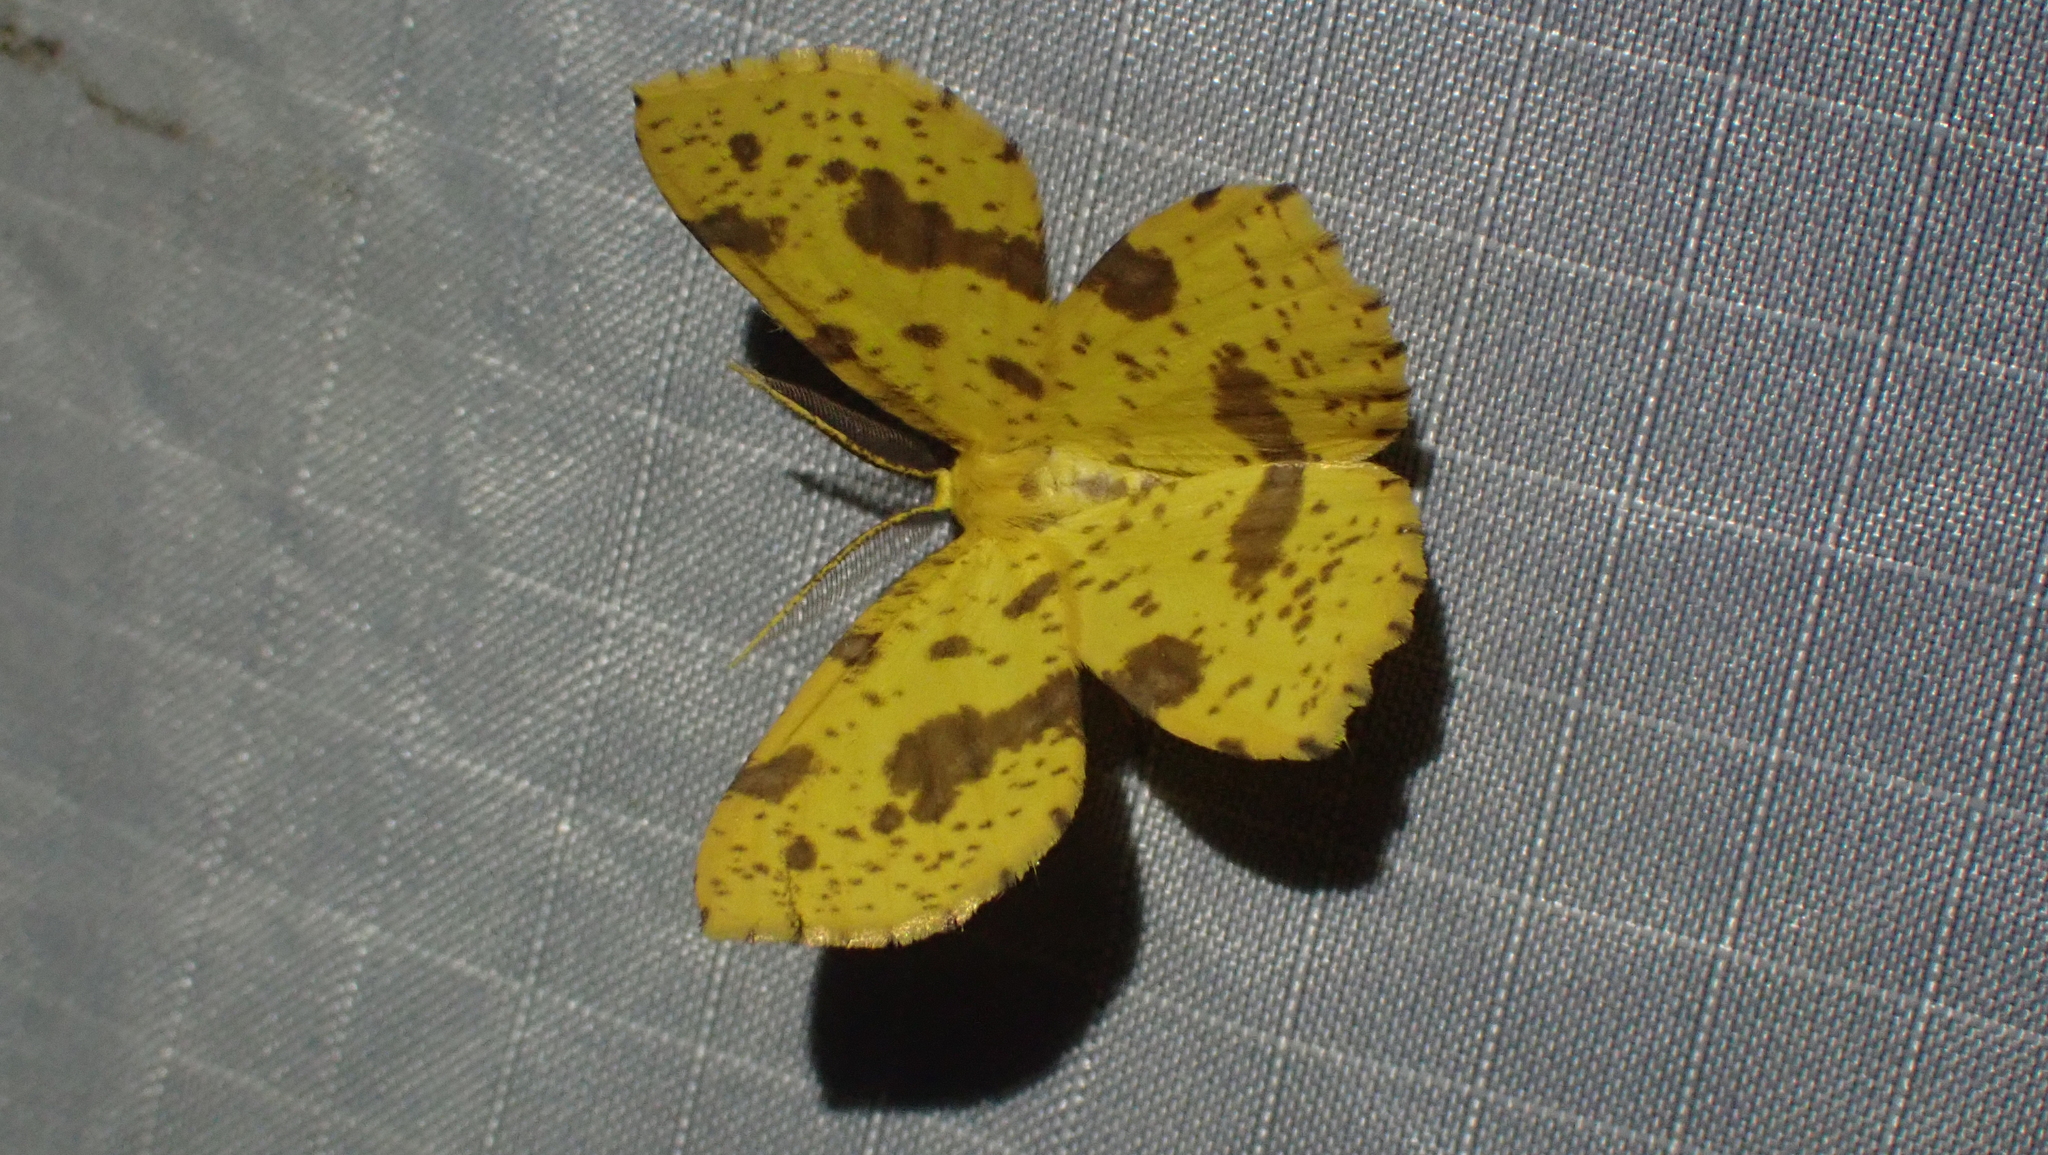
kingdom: Animalia
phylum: Arthropoda
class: Insecta
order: Lepidoptera
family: Geometridae
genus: Xanthotype
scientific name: Xanthotype
